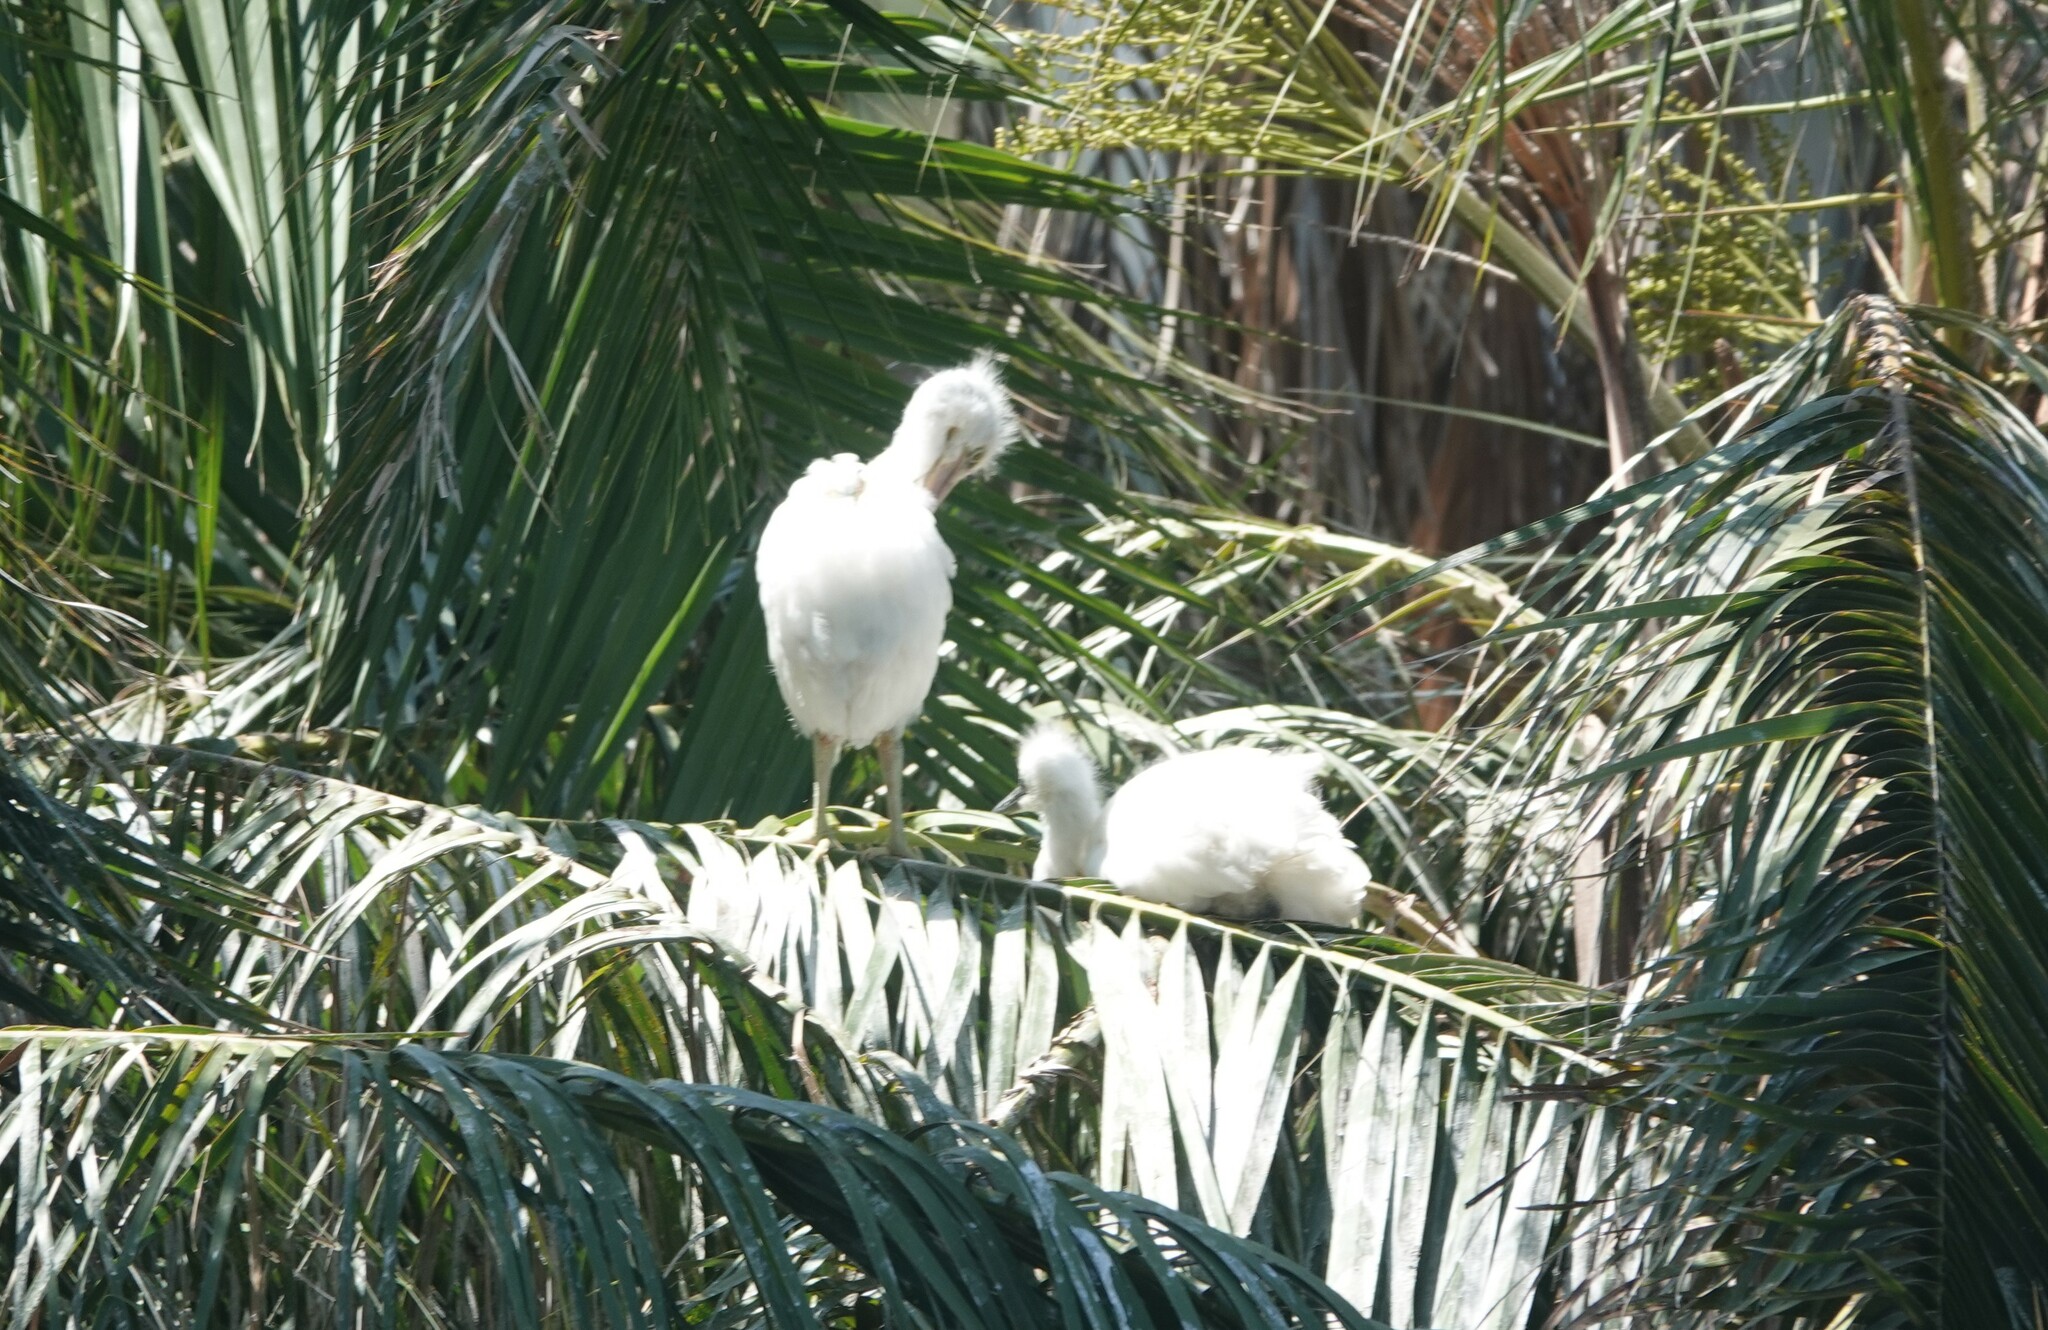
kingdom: Animalia
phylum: Chordata
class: Aves
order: Pelecaniformes
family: Ardeidae
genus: Egretta
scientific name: Egretta thula
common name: Snowy egret
